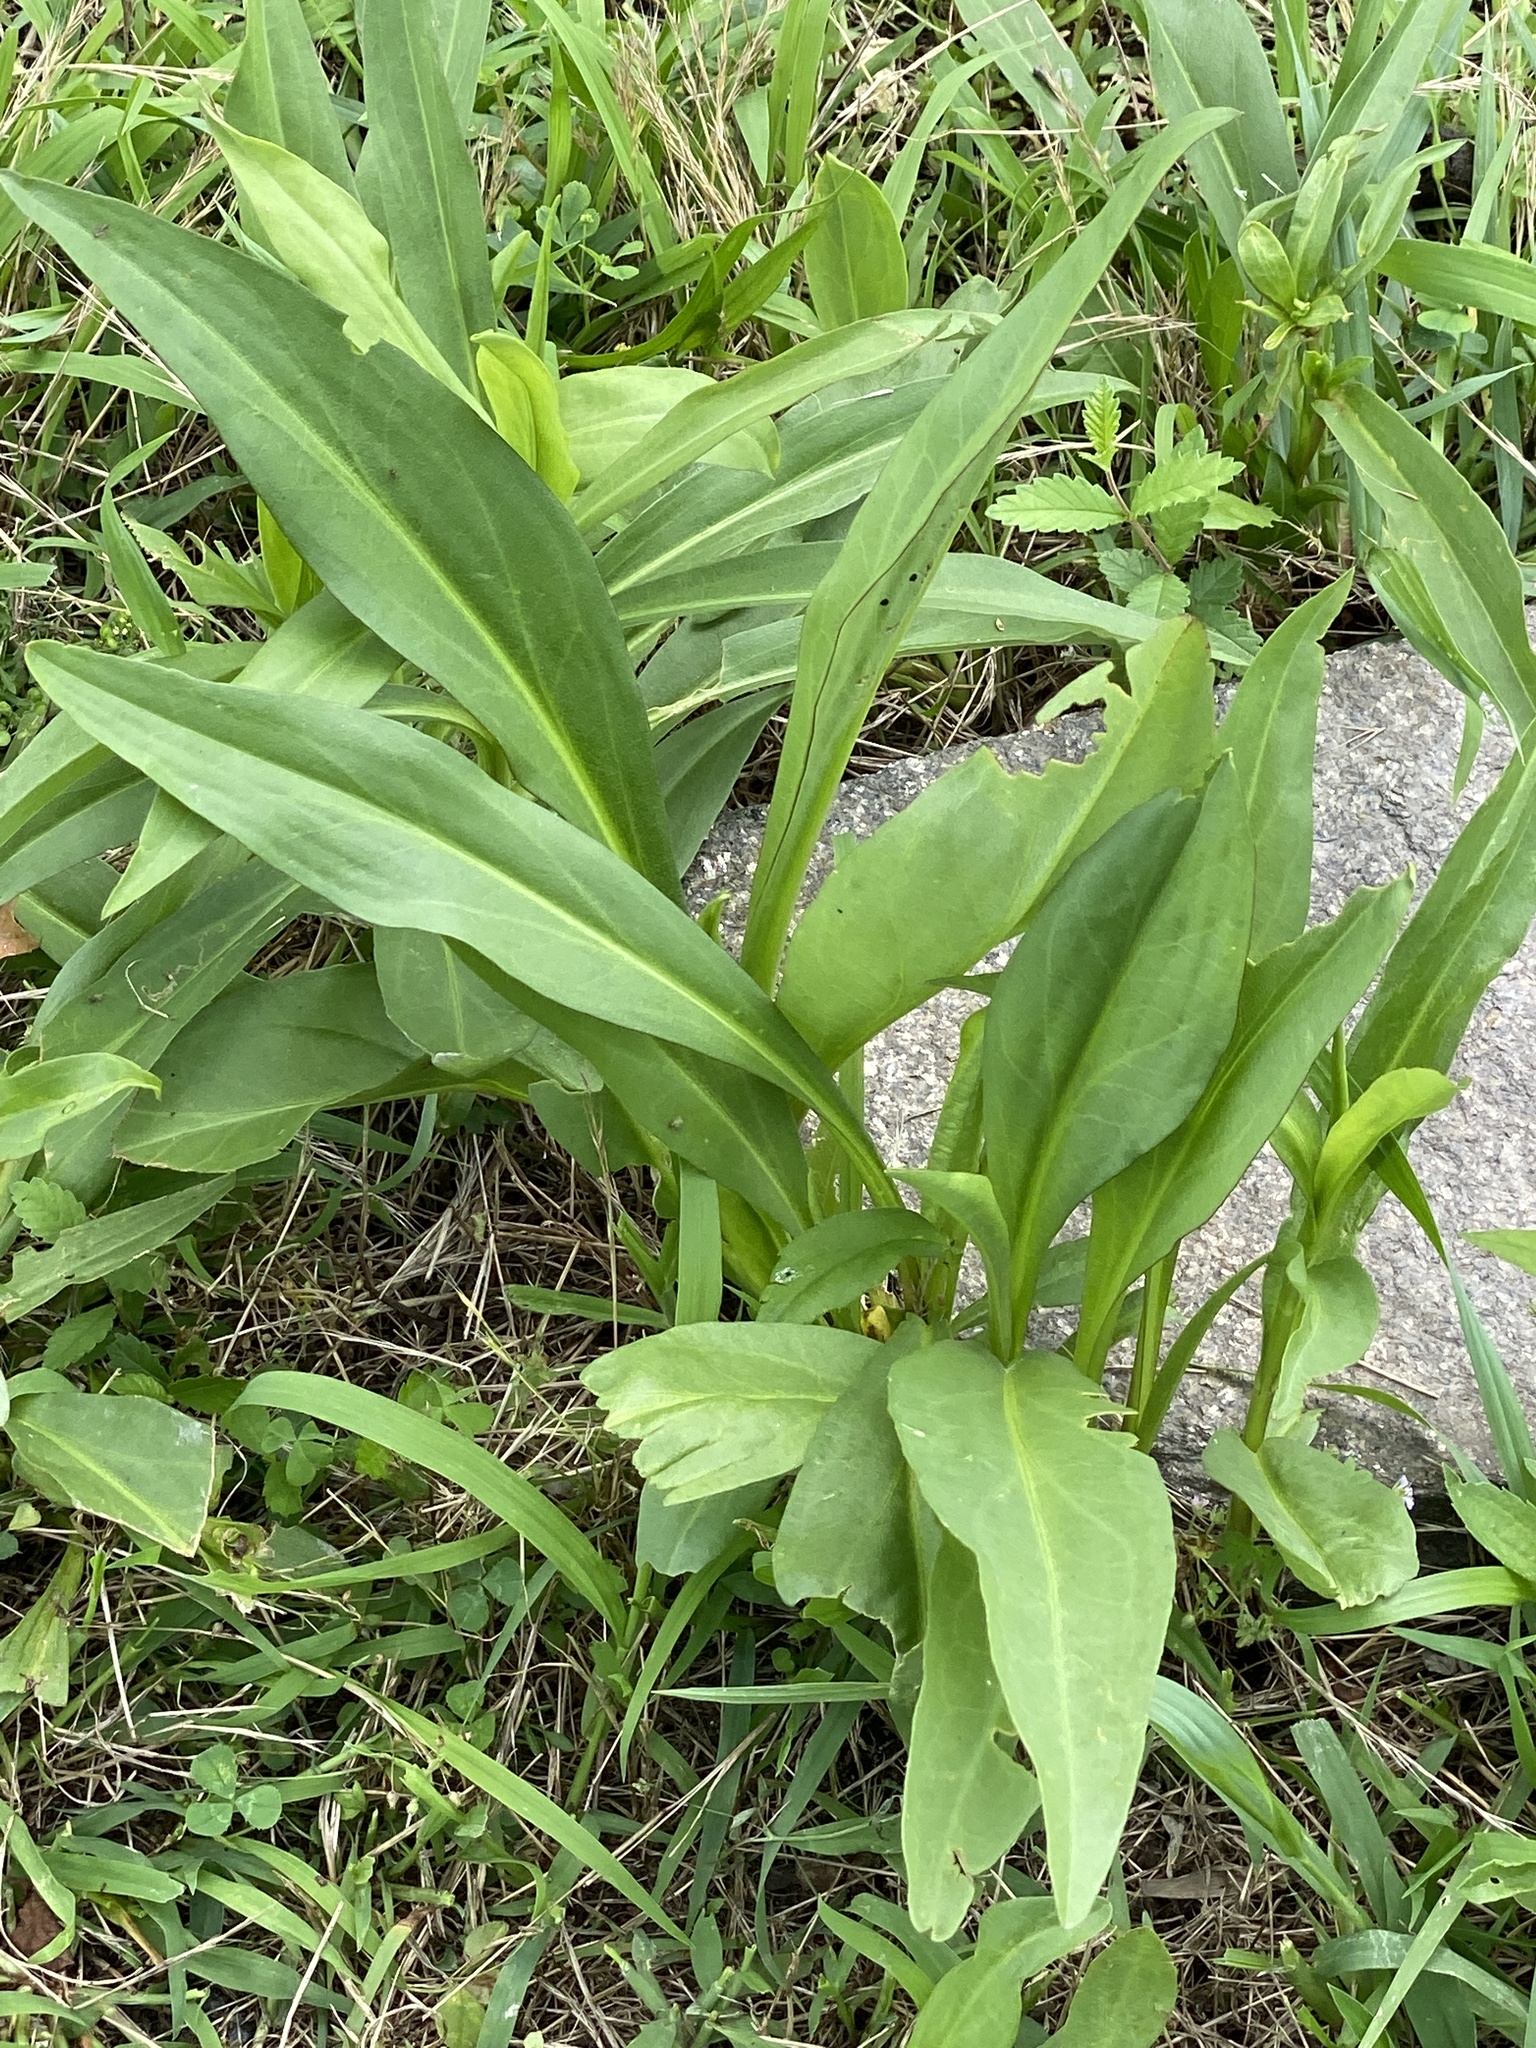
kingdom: Plantae
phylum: Tracheophyta
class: Magnoliopsida
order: Asterales
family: Asteraceae
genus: Solidago
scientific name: Solidago sempervirens
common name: Salt-marsh goldenrod
